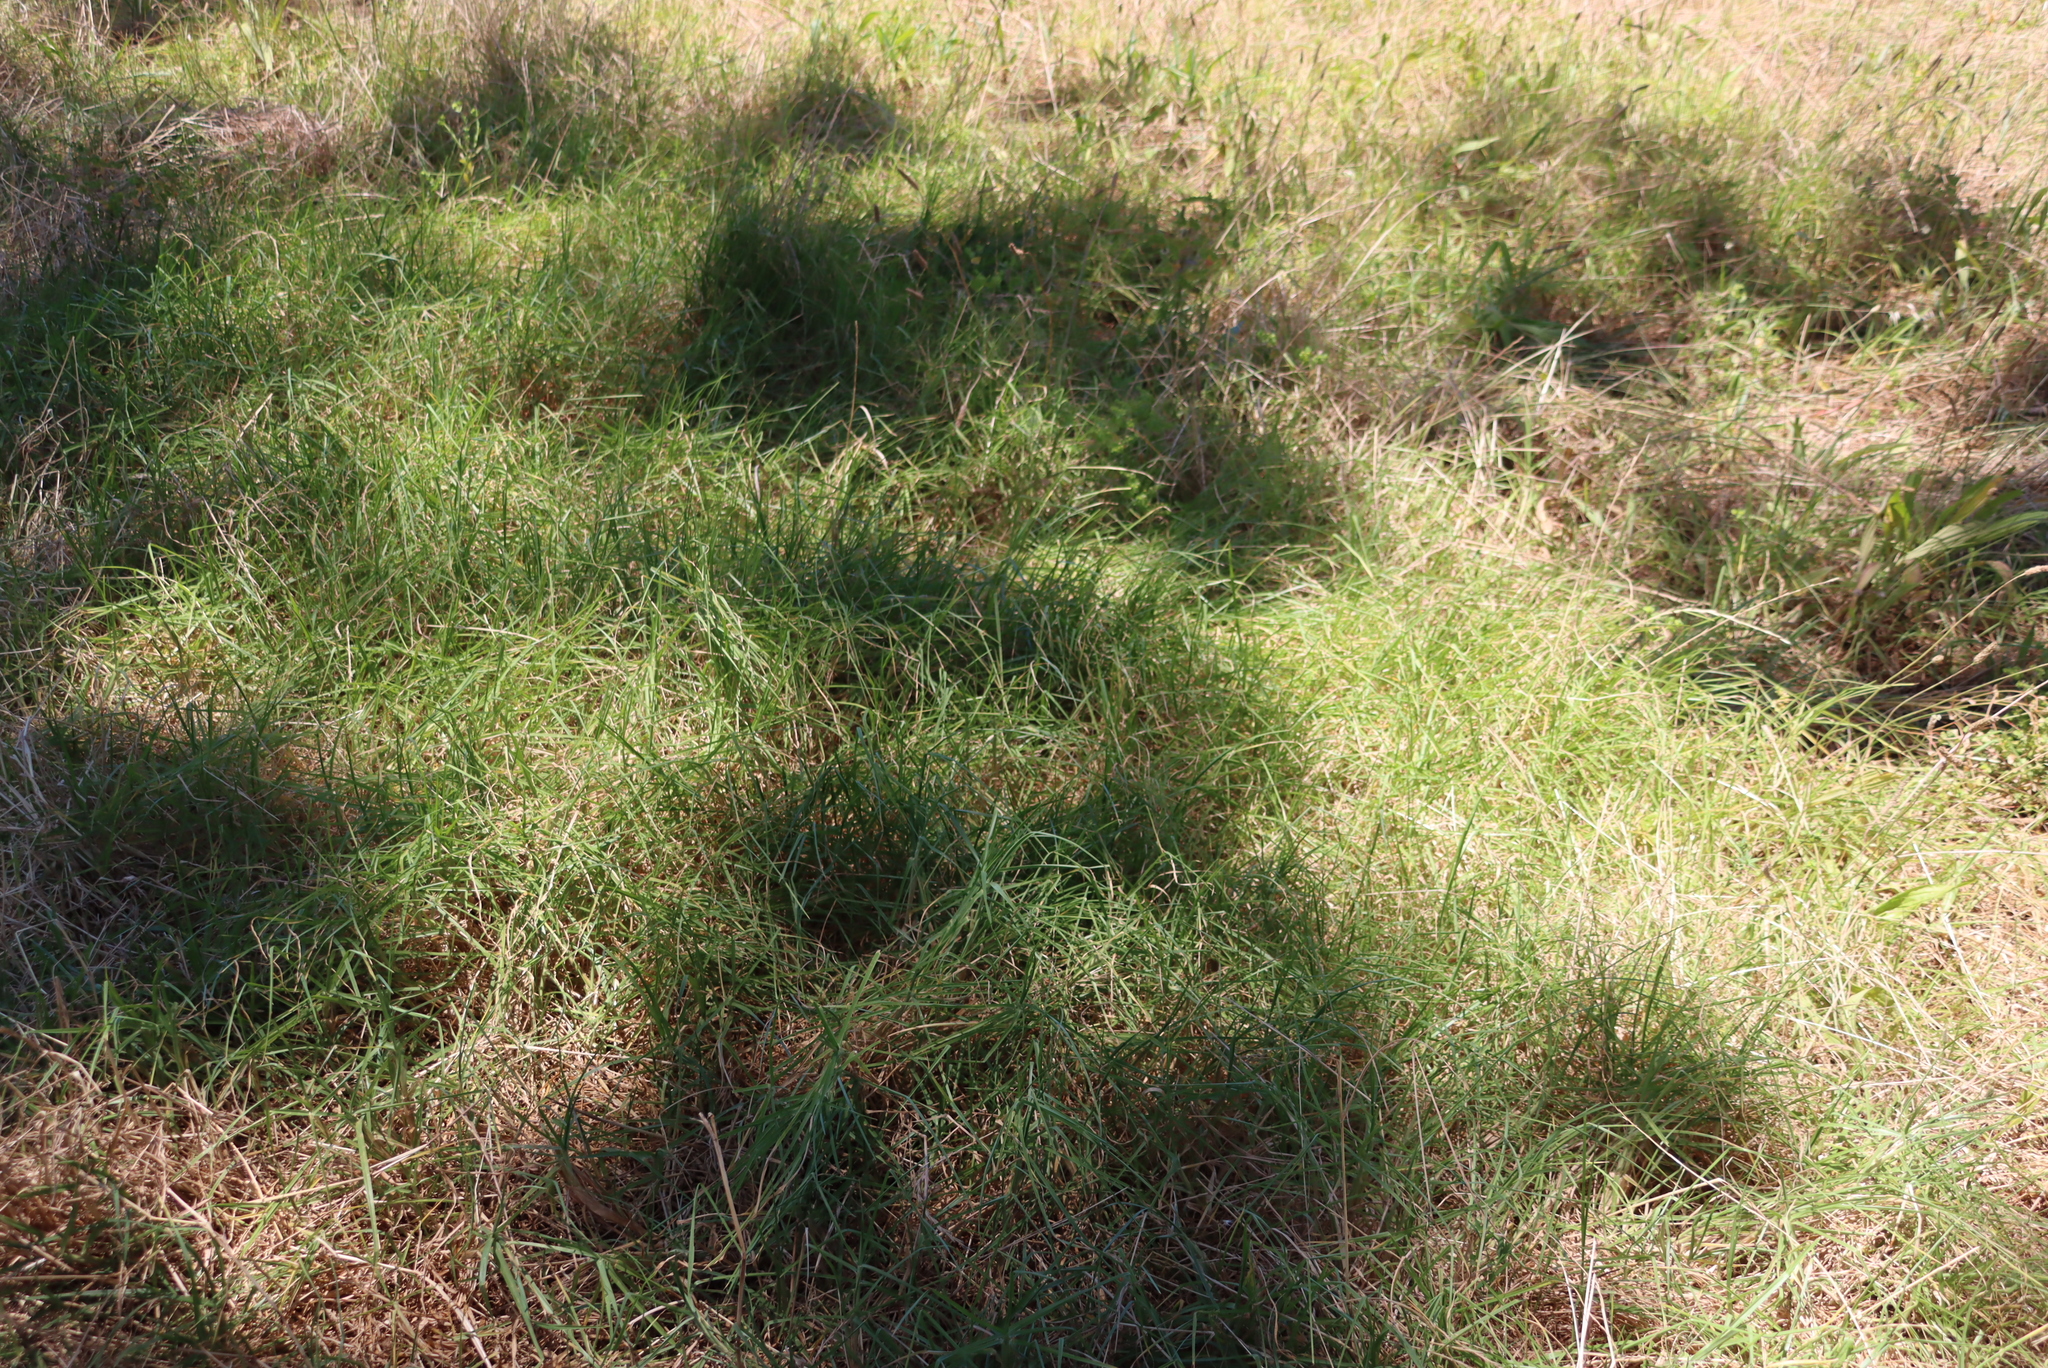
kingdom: Plantae
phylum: Tracheophyta
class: Liliopsida
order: Poales
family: Poaceae
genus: Cenchrus
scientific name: Cenchrus clandestinus
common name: Kikuyugrass
